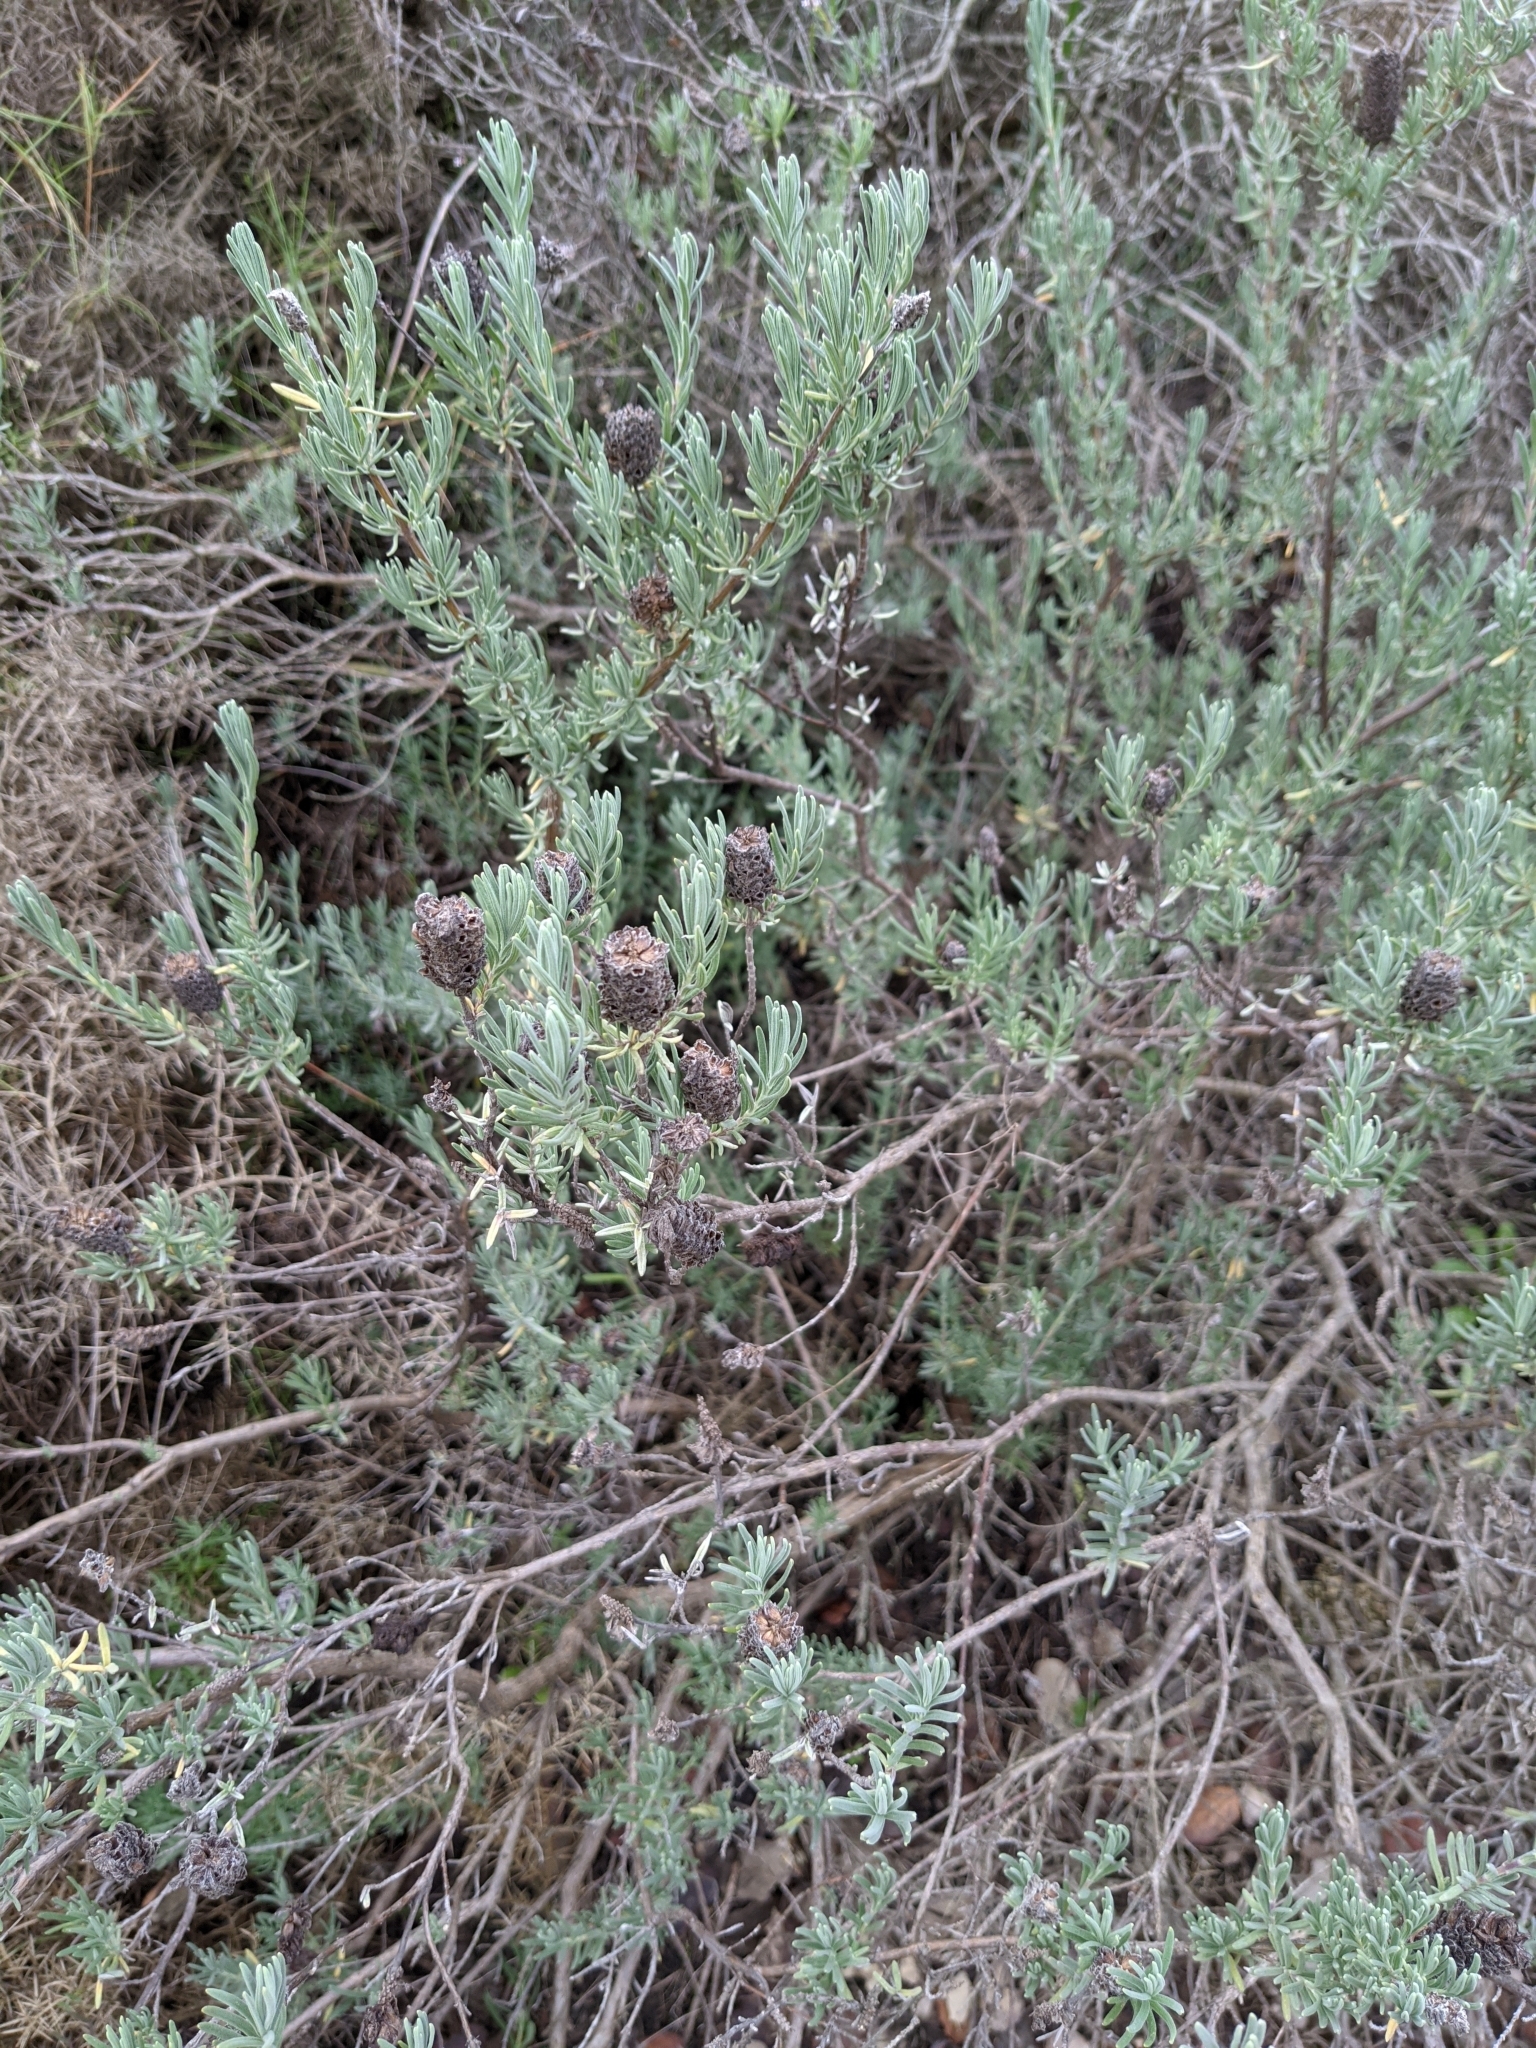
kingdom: Plantae
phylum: Tracheophyta
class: Magnoliopsida
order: Lamiales
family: Lamiaceae
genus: Lavandula
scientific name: Lavandula stoechas
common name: French lavender
